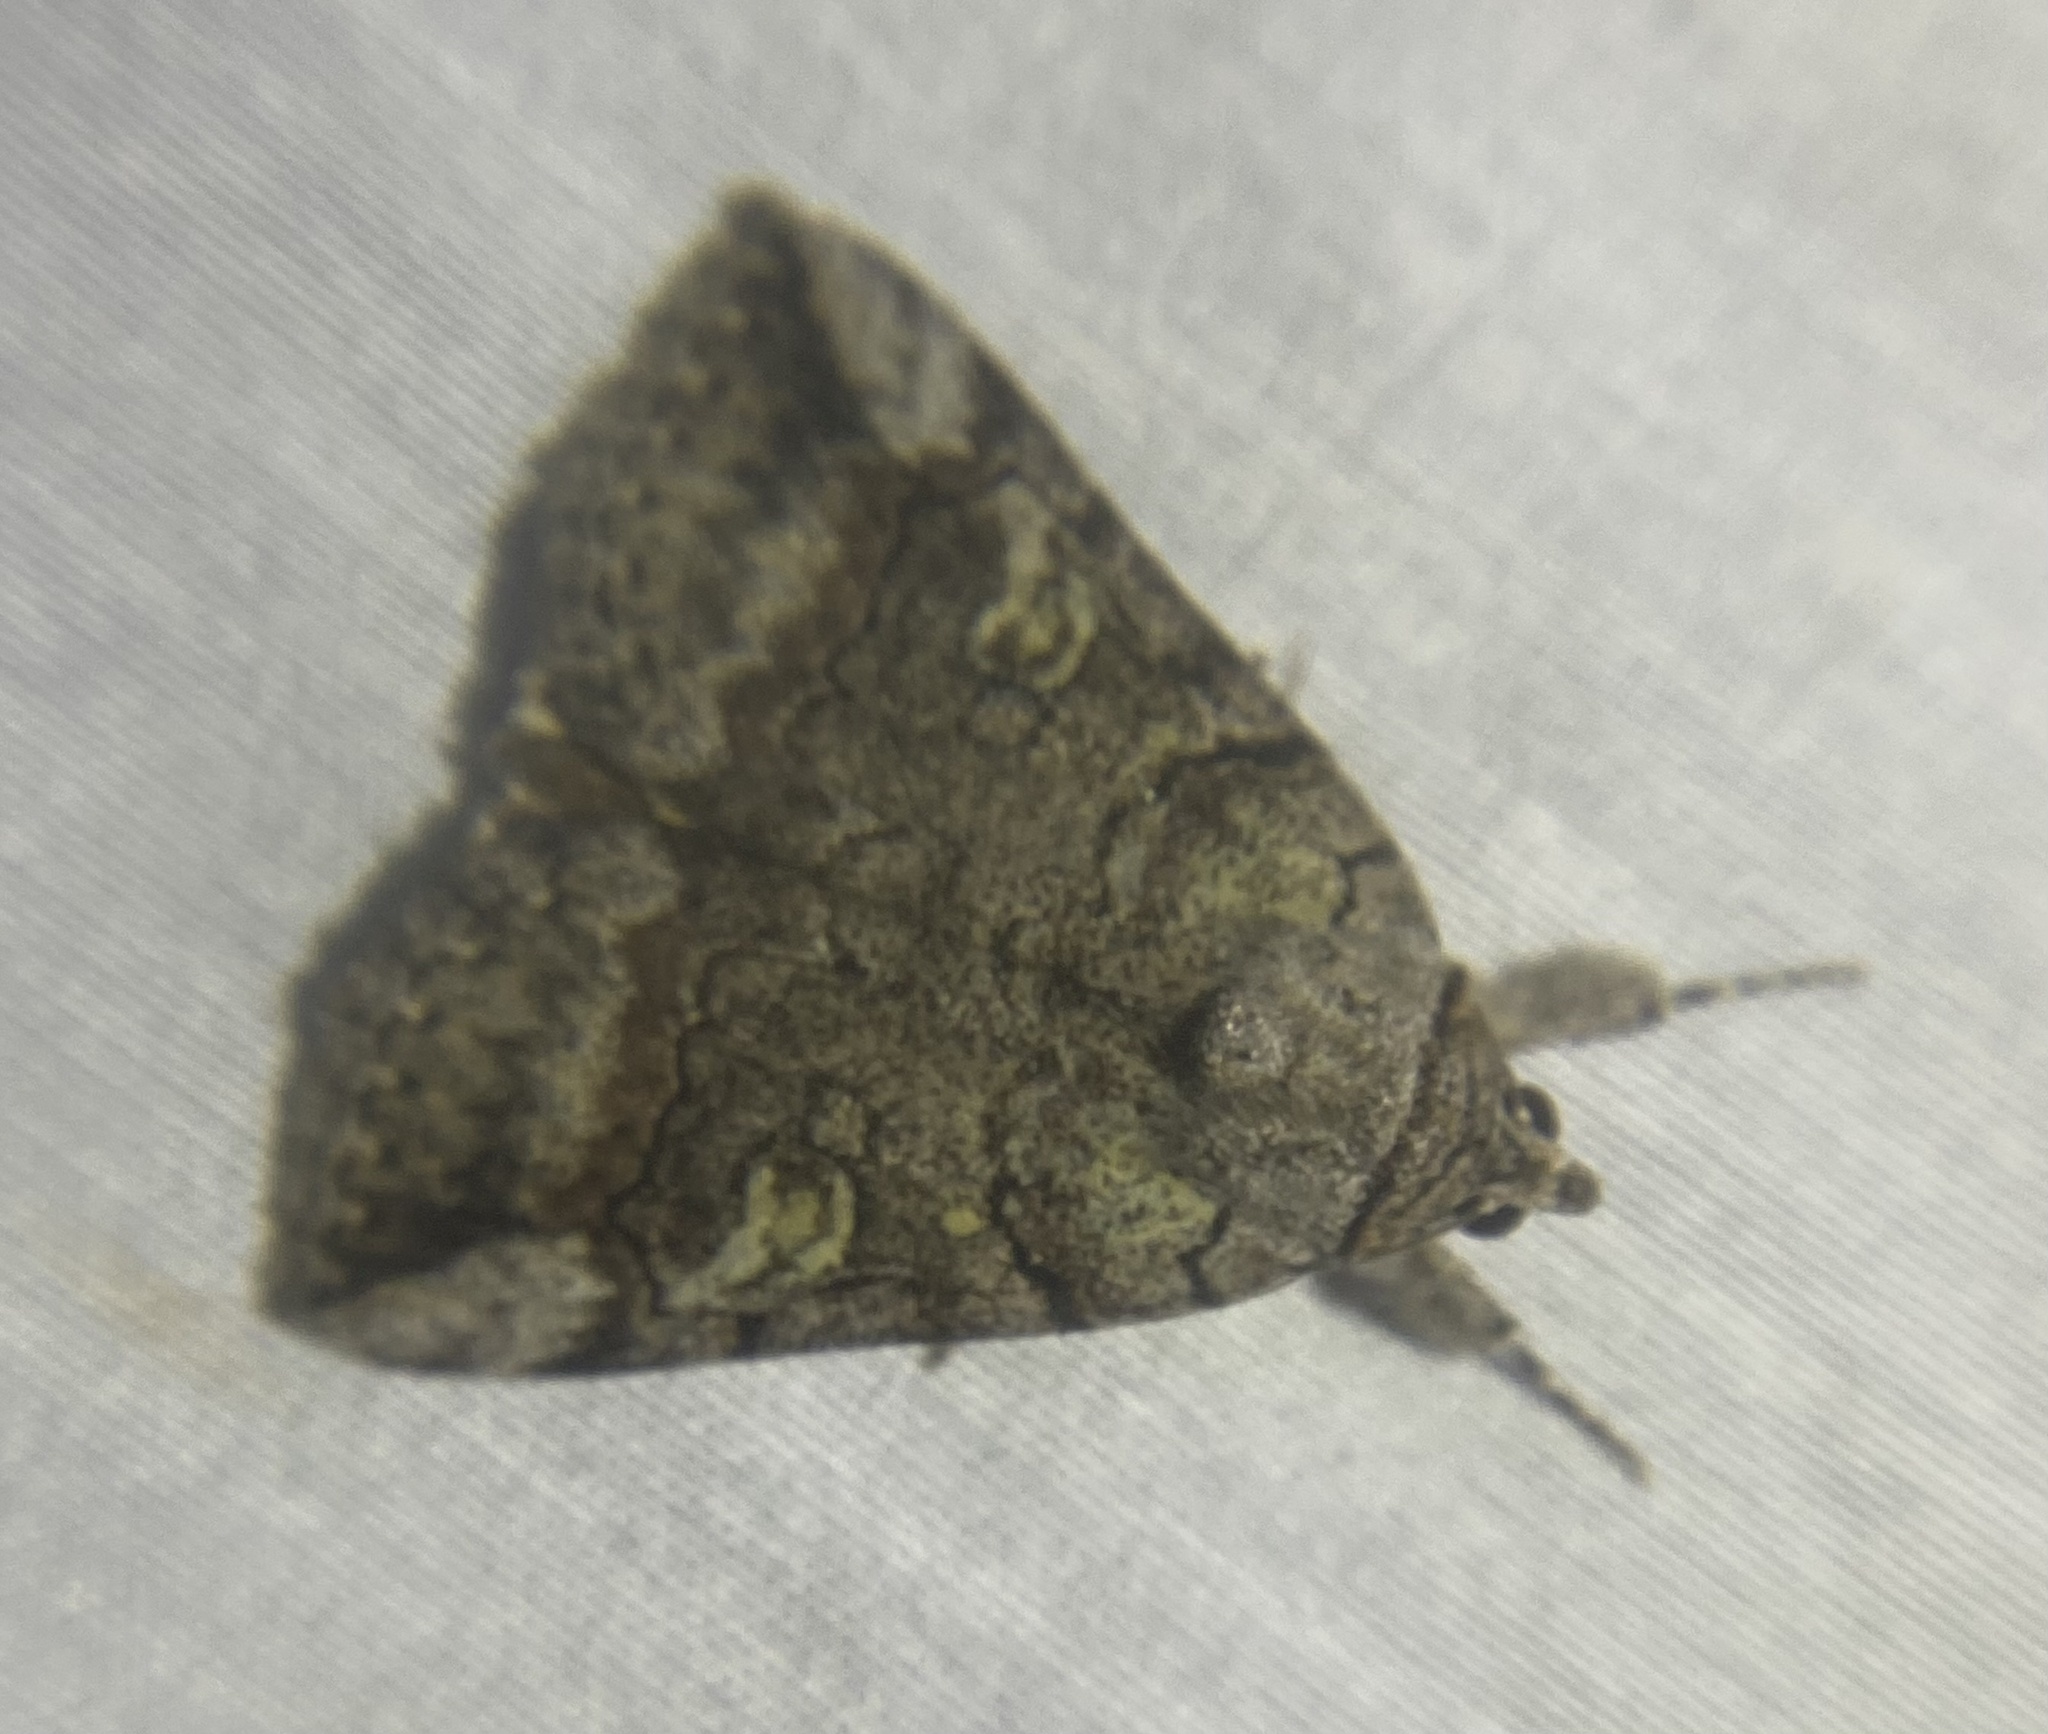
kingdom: Animalia
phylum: Arthropoda
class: Insecta
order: Lepidoptera
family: Erebidae
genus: Catocala
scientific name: Catocala similis
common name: Similar underwing
